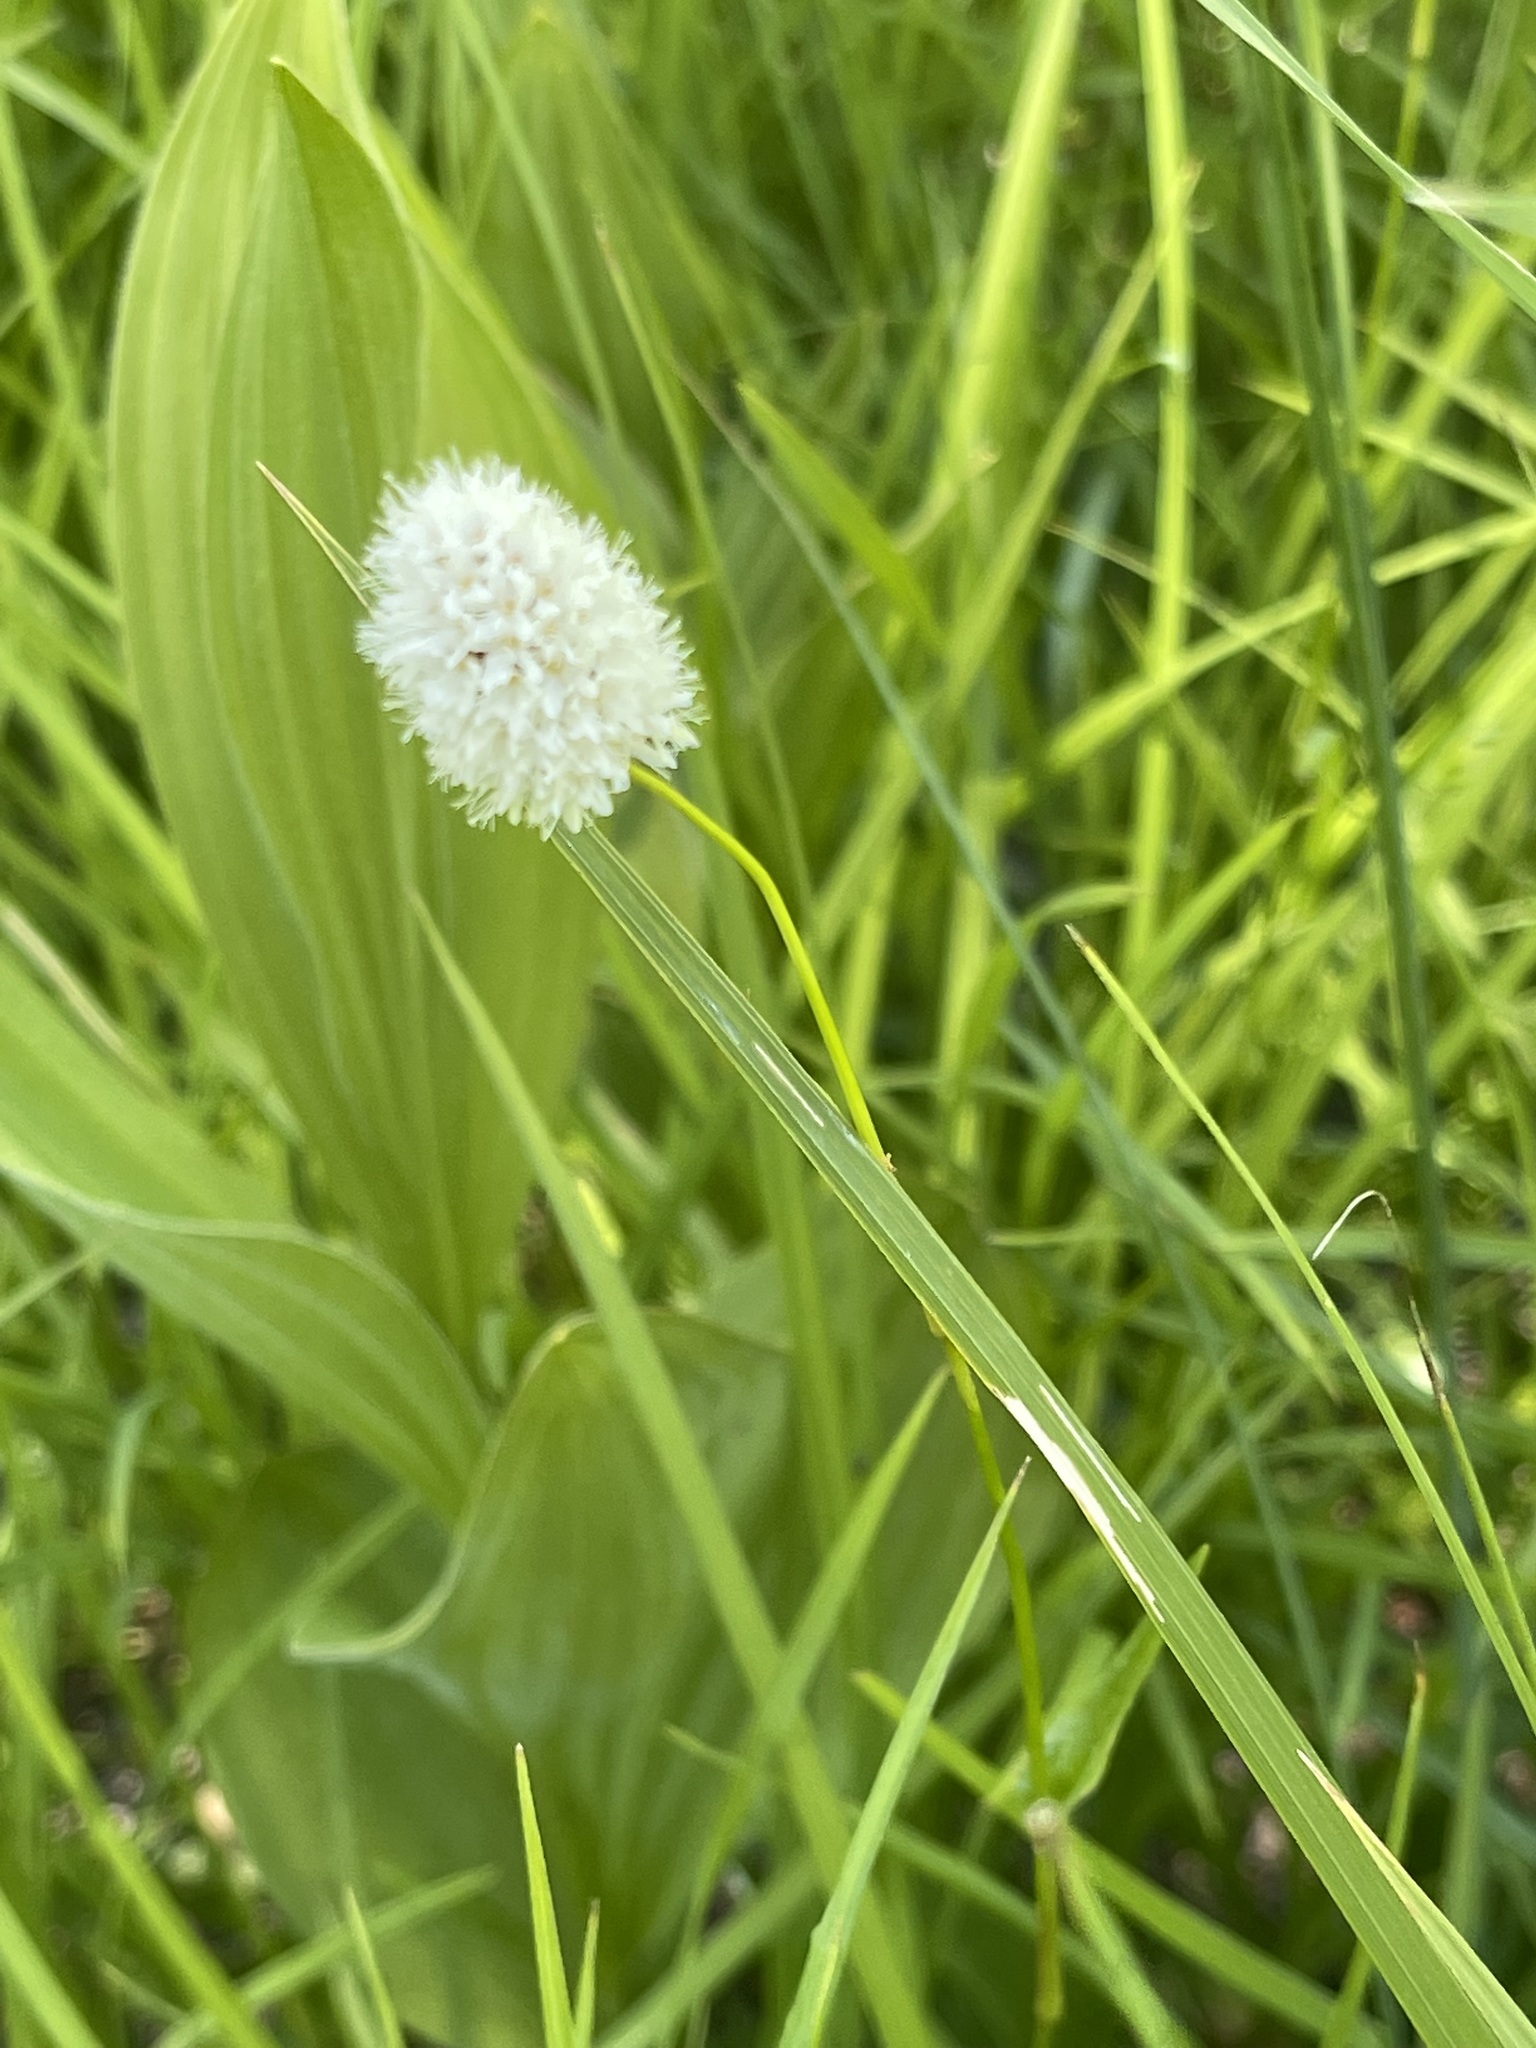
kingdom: Plantae
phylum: Tracheophyta
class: Magnoliopsida
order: Caryophyllales
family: Polygonaceae
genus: Bistorta
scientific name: Bistorta bistortoides
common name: American bistort
